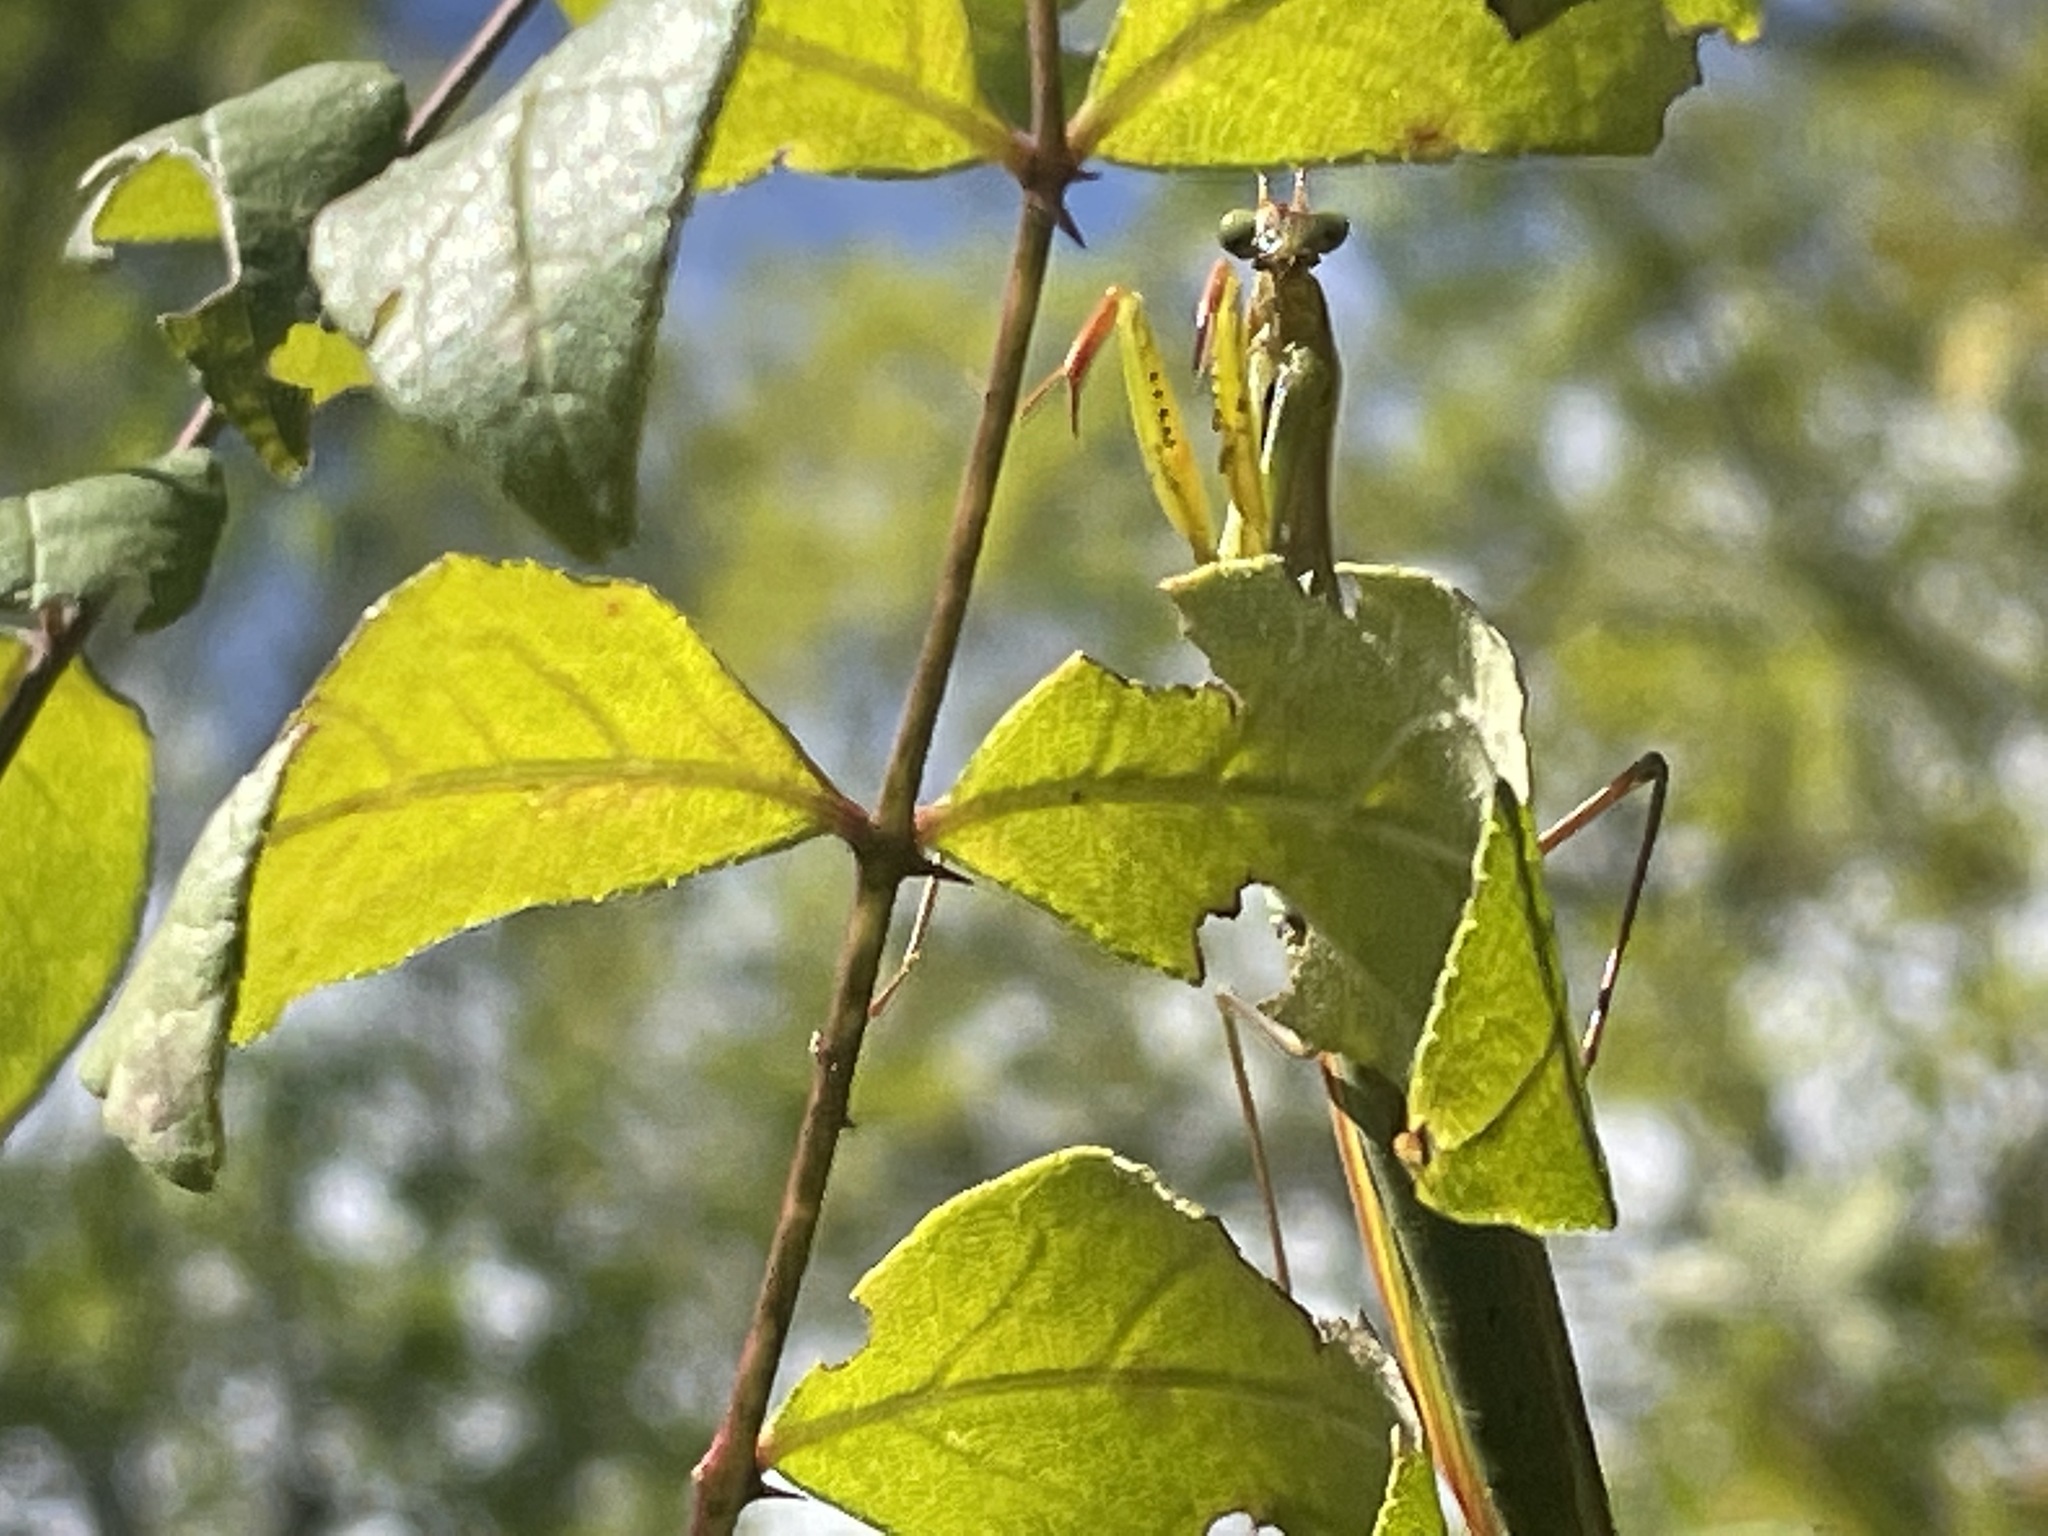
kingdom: Animalia
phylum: Arthropoda
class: Insecta
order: Mantodea
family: Mantidae
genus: Mantis
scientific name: Mantis religiosa
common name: Praying mantis
